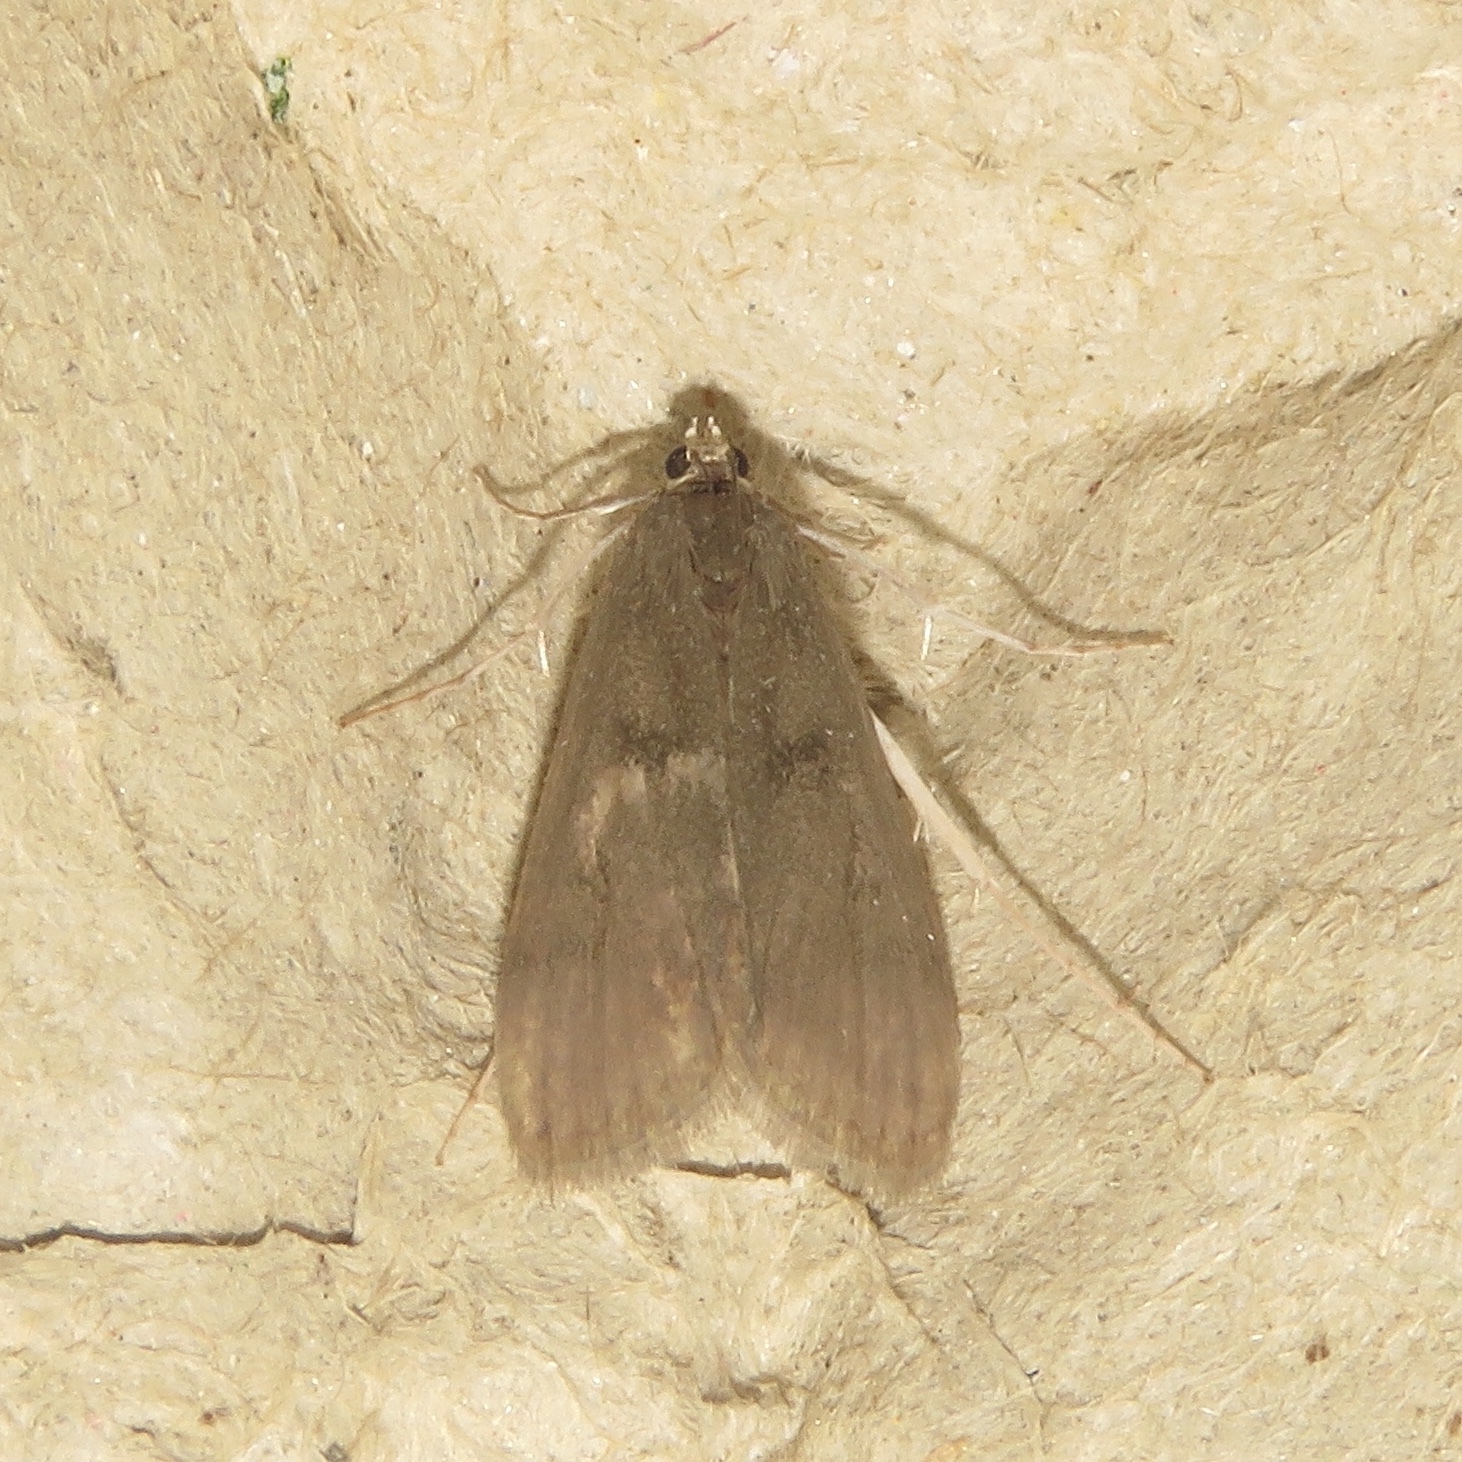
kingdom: Animalia
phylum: Arthropoda
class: Insecta
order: Lepidoptera
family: Crambidae
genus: Parapoynx
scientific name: Parapoynx maculalis
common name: Polymorphic pondweed moth
